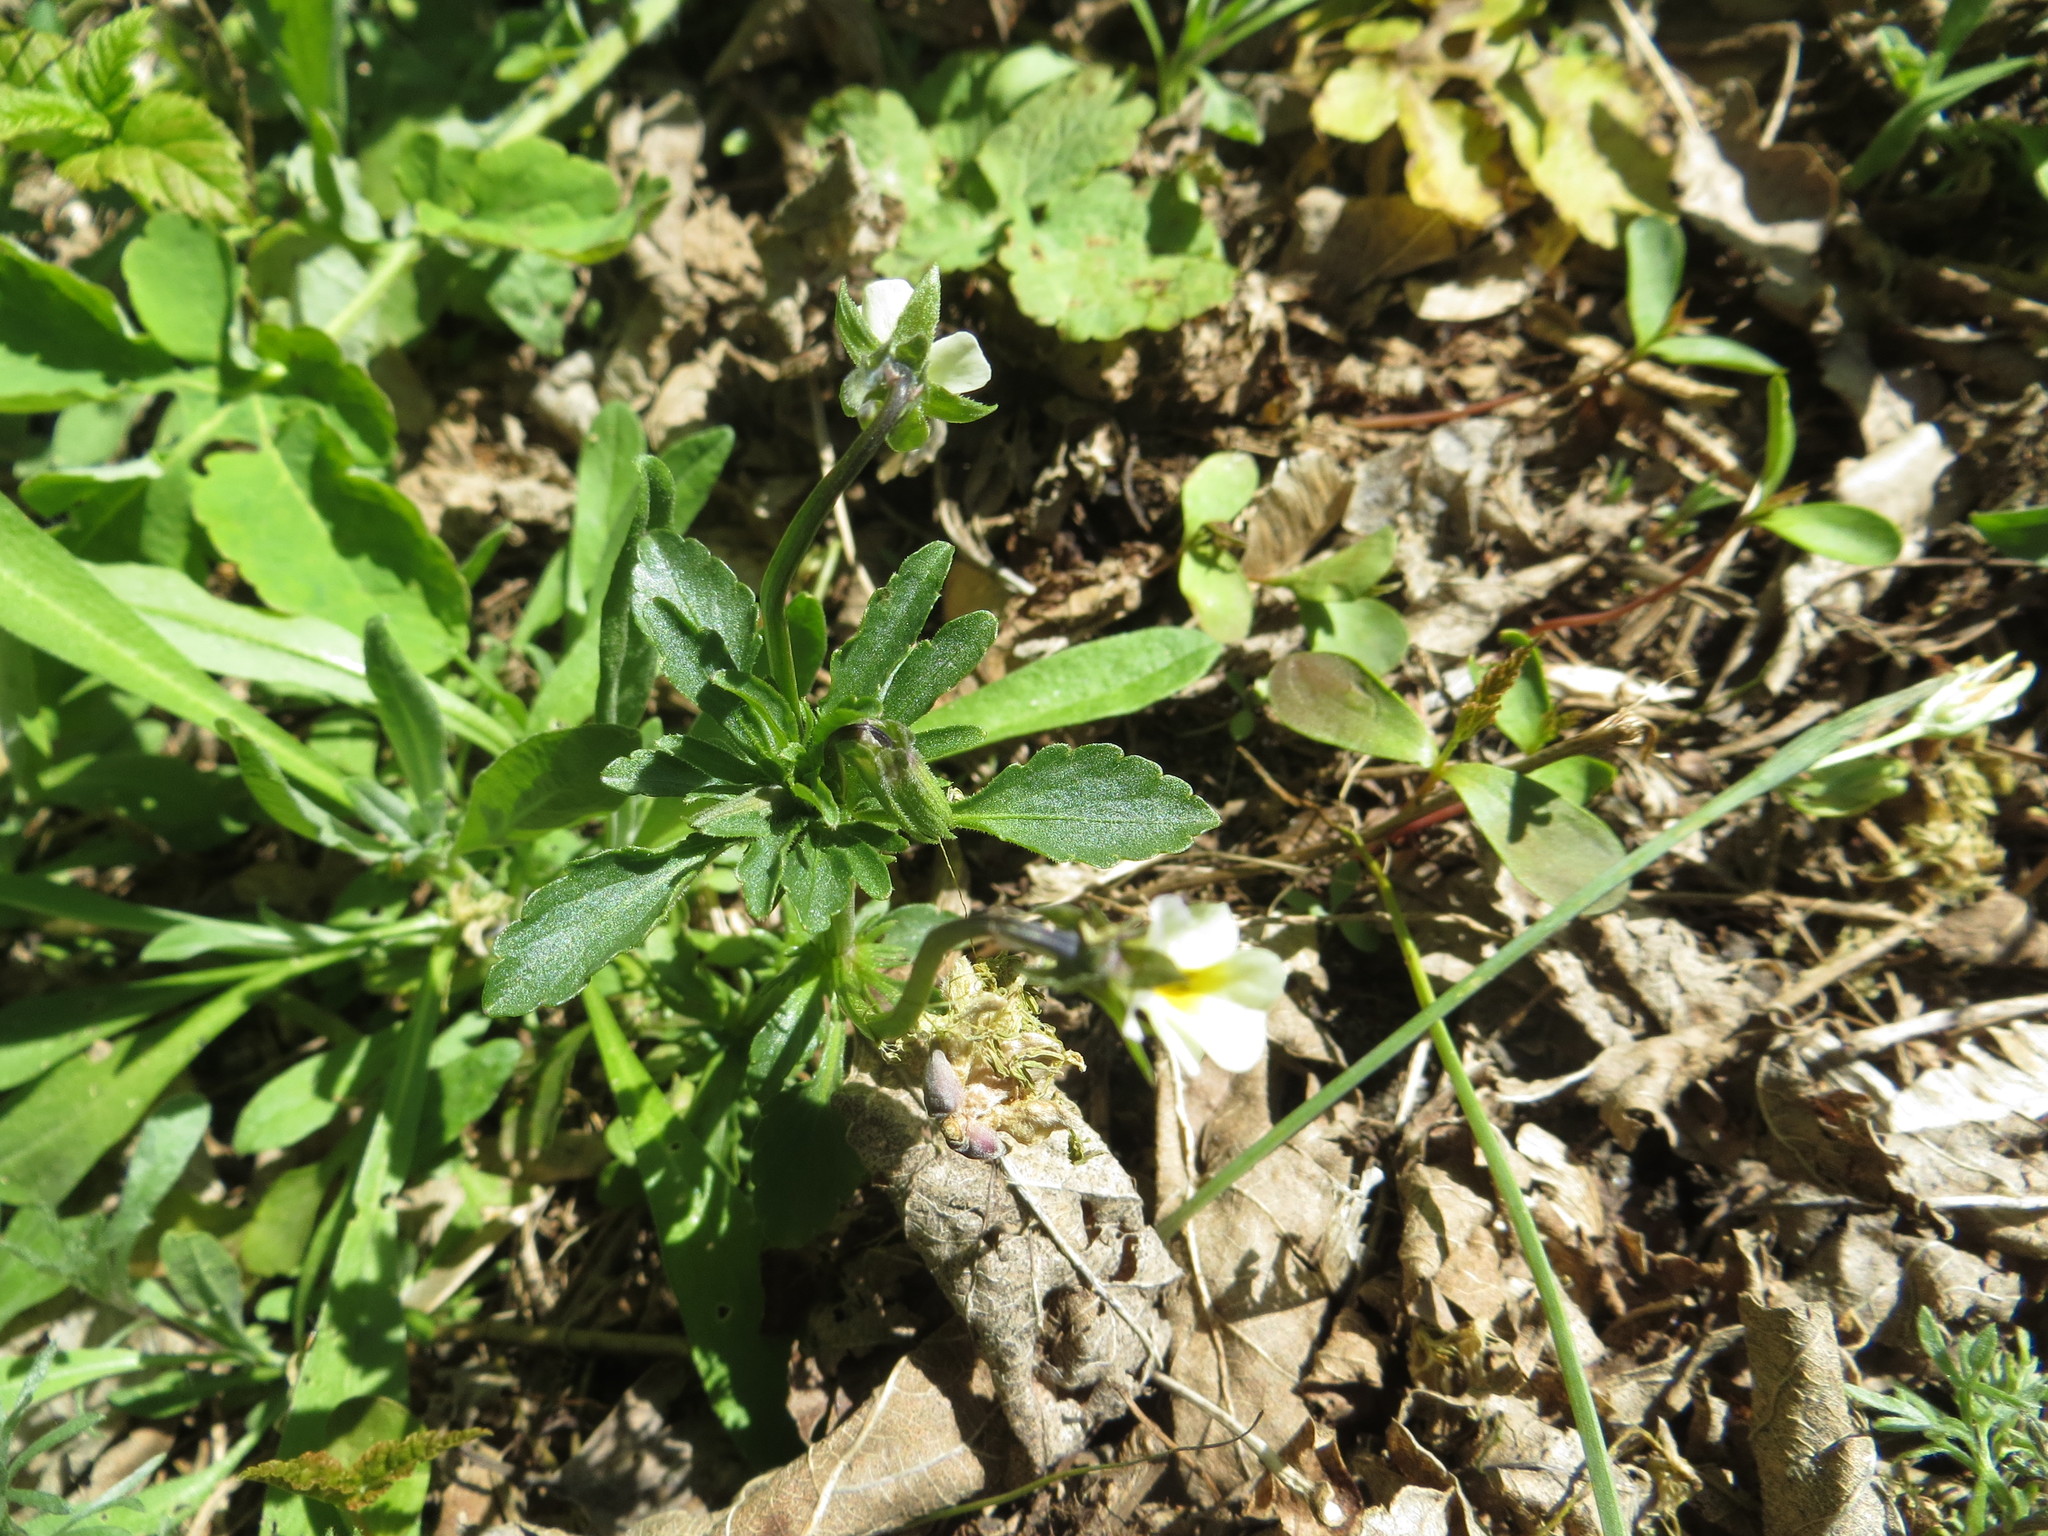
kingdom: Plantae
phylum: Tracheophyta
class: Magnoliopsida
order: Malpighiales
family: Violaceae
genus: Viola
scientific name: Viola arvensis
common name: Field pansy
